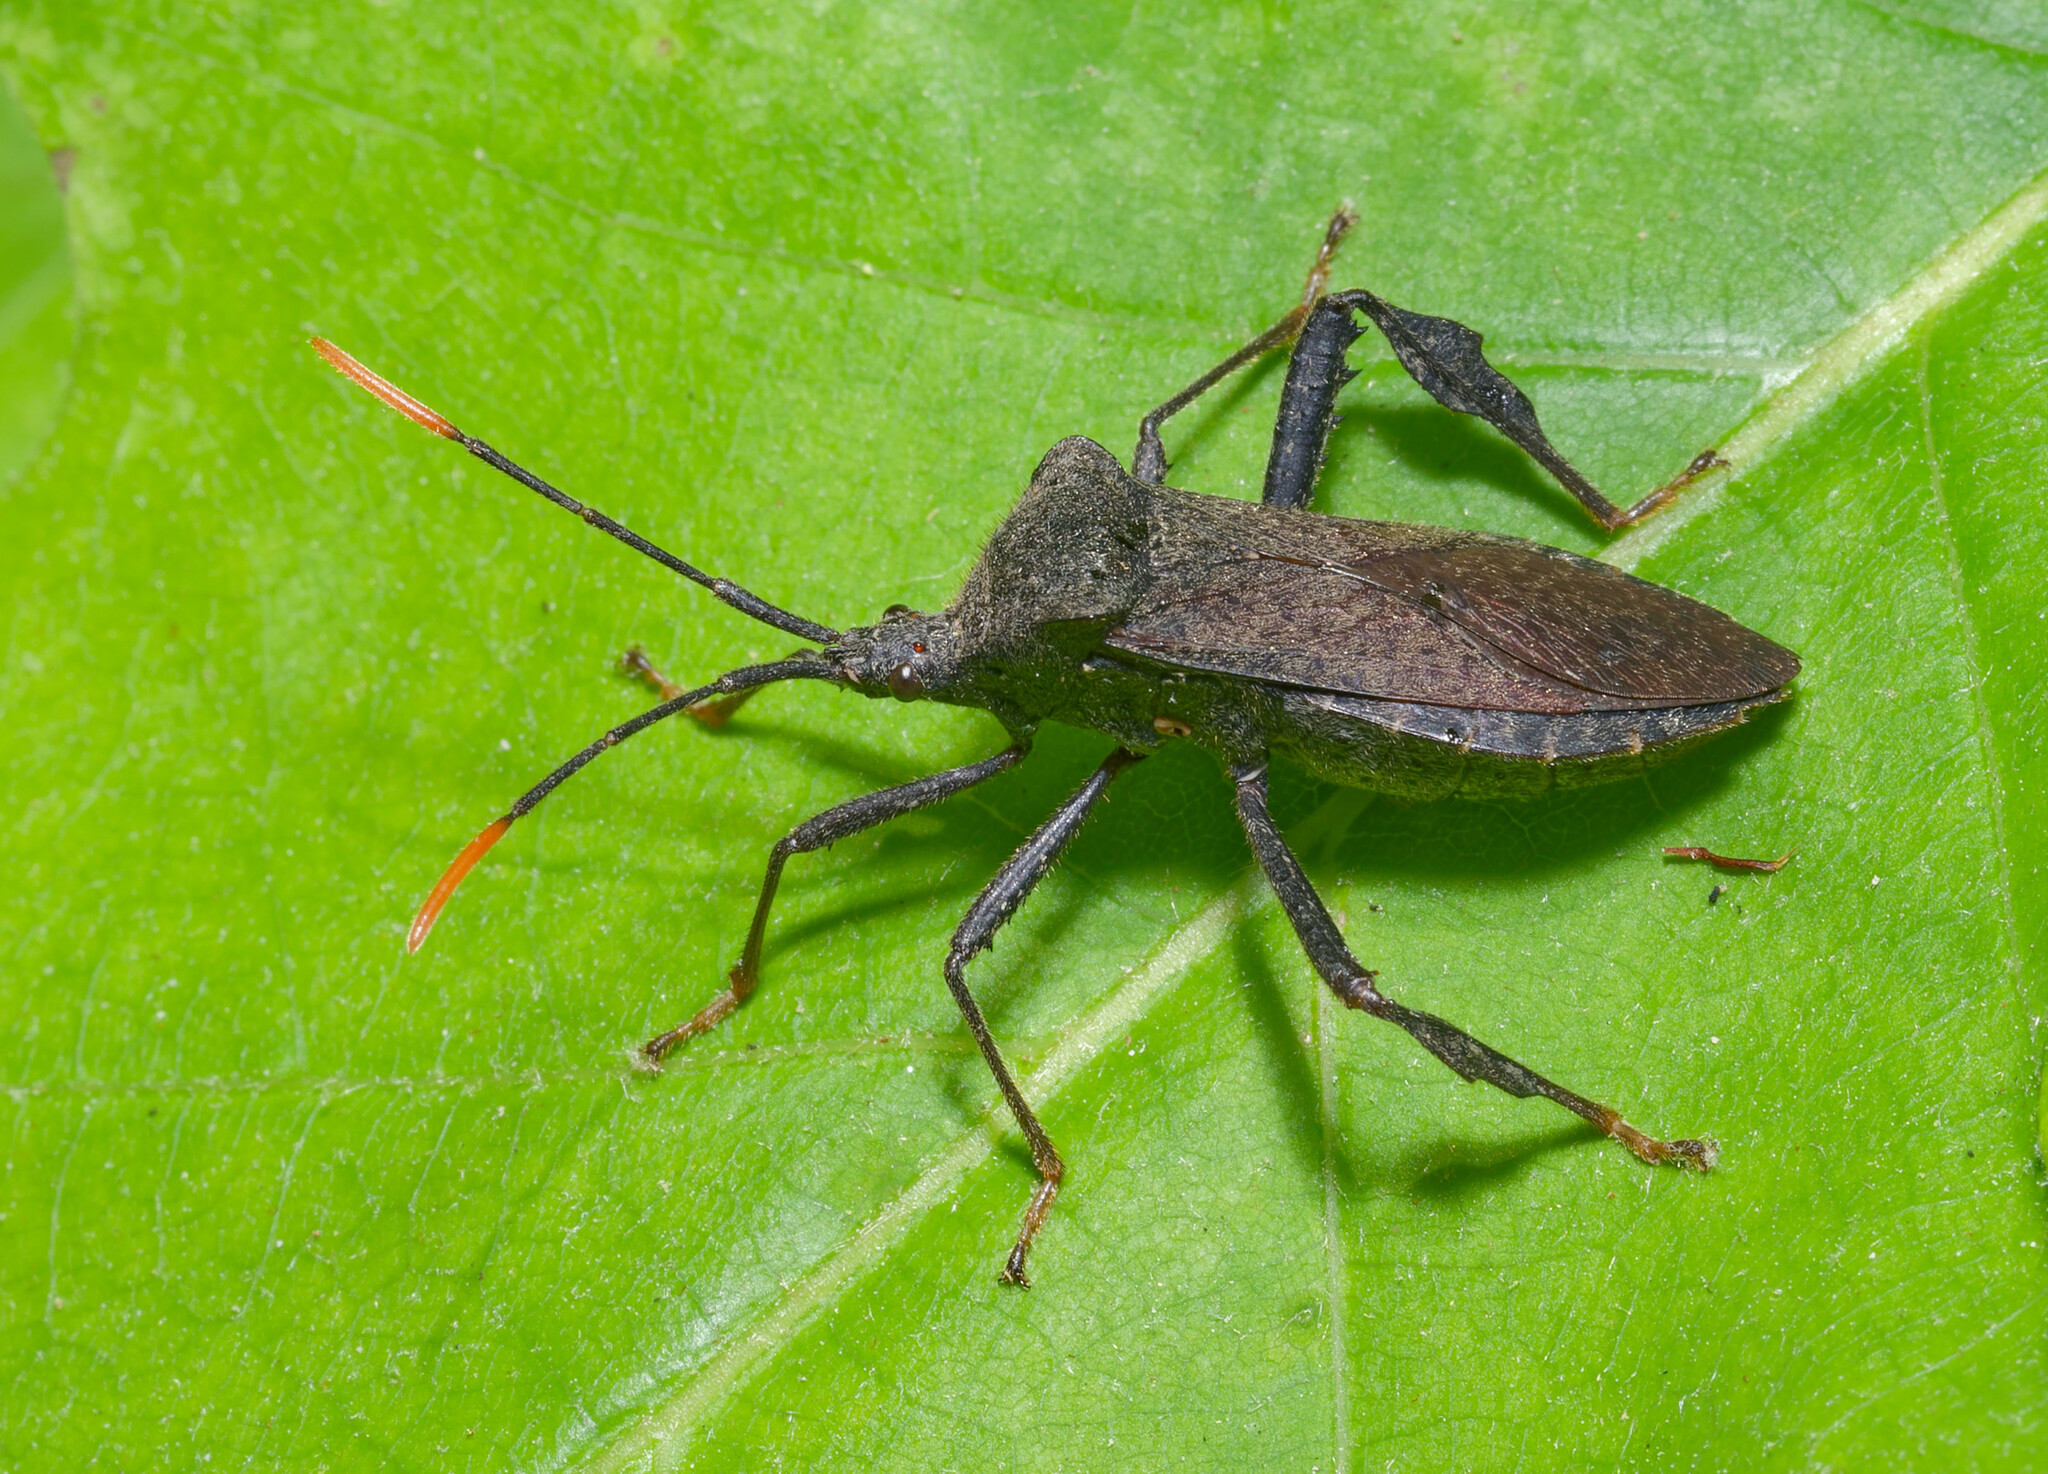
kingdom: Animalia
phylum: Arthropoda
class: Insecta
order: Hemiptera
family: Coreidae
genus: Acanthocephala
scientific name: Acanthocephala terminalis
